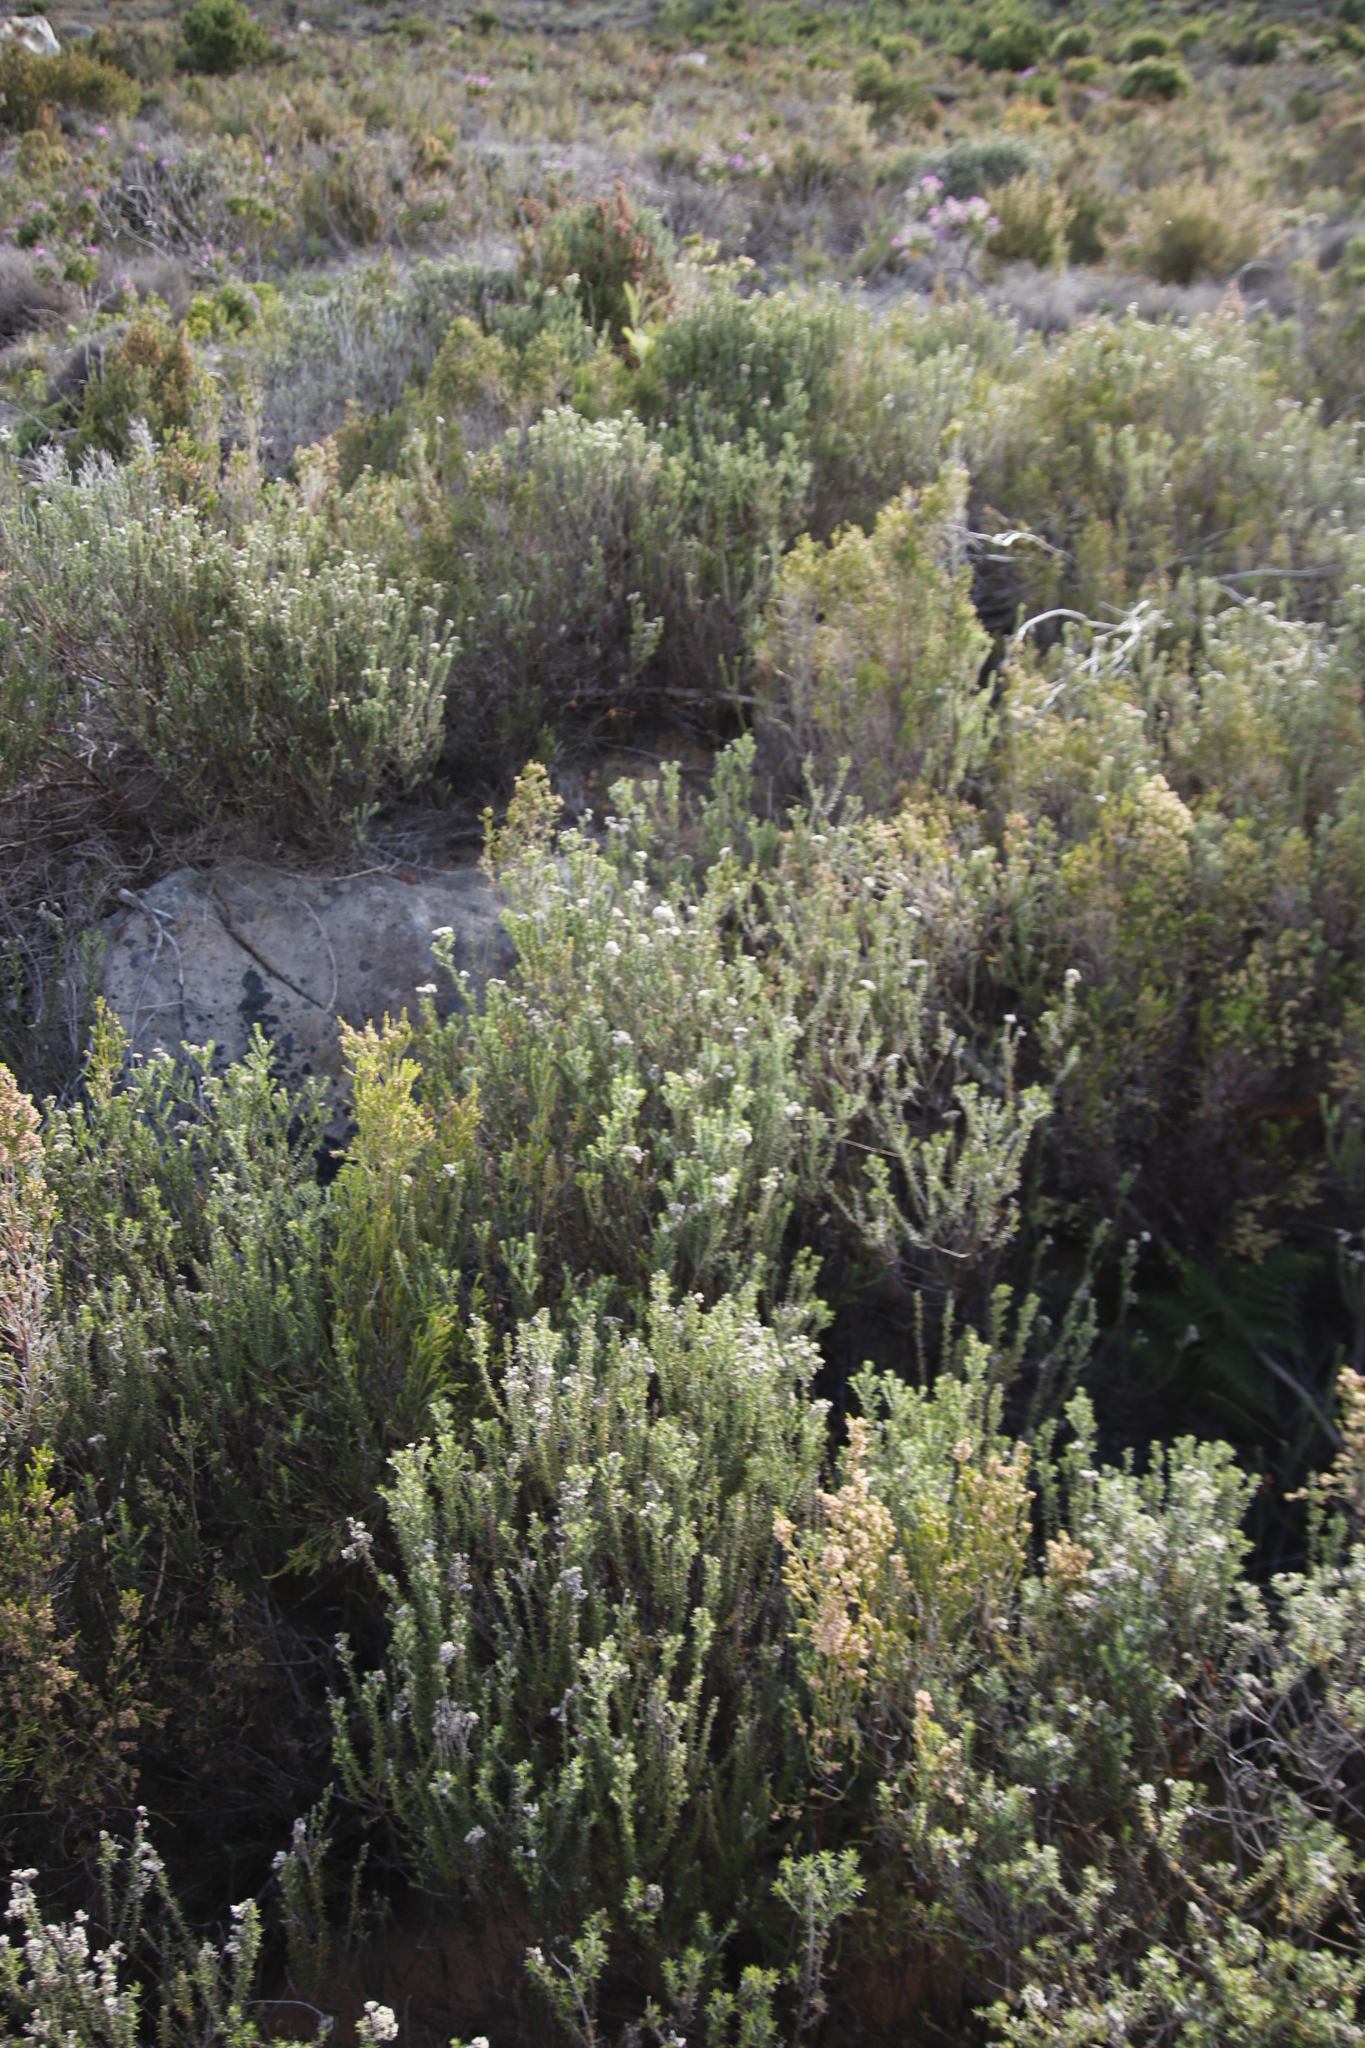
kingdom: Plantae
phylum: Tracheophyta
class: Magnoliopsida
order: Asterales
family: Asteraceae
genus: Metalasia
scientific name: Metalasia densa
